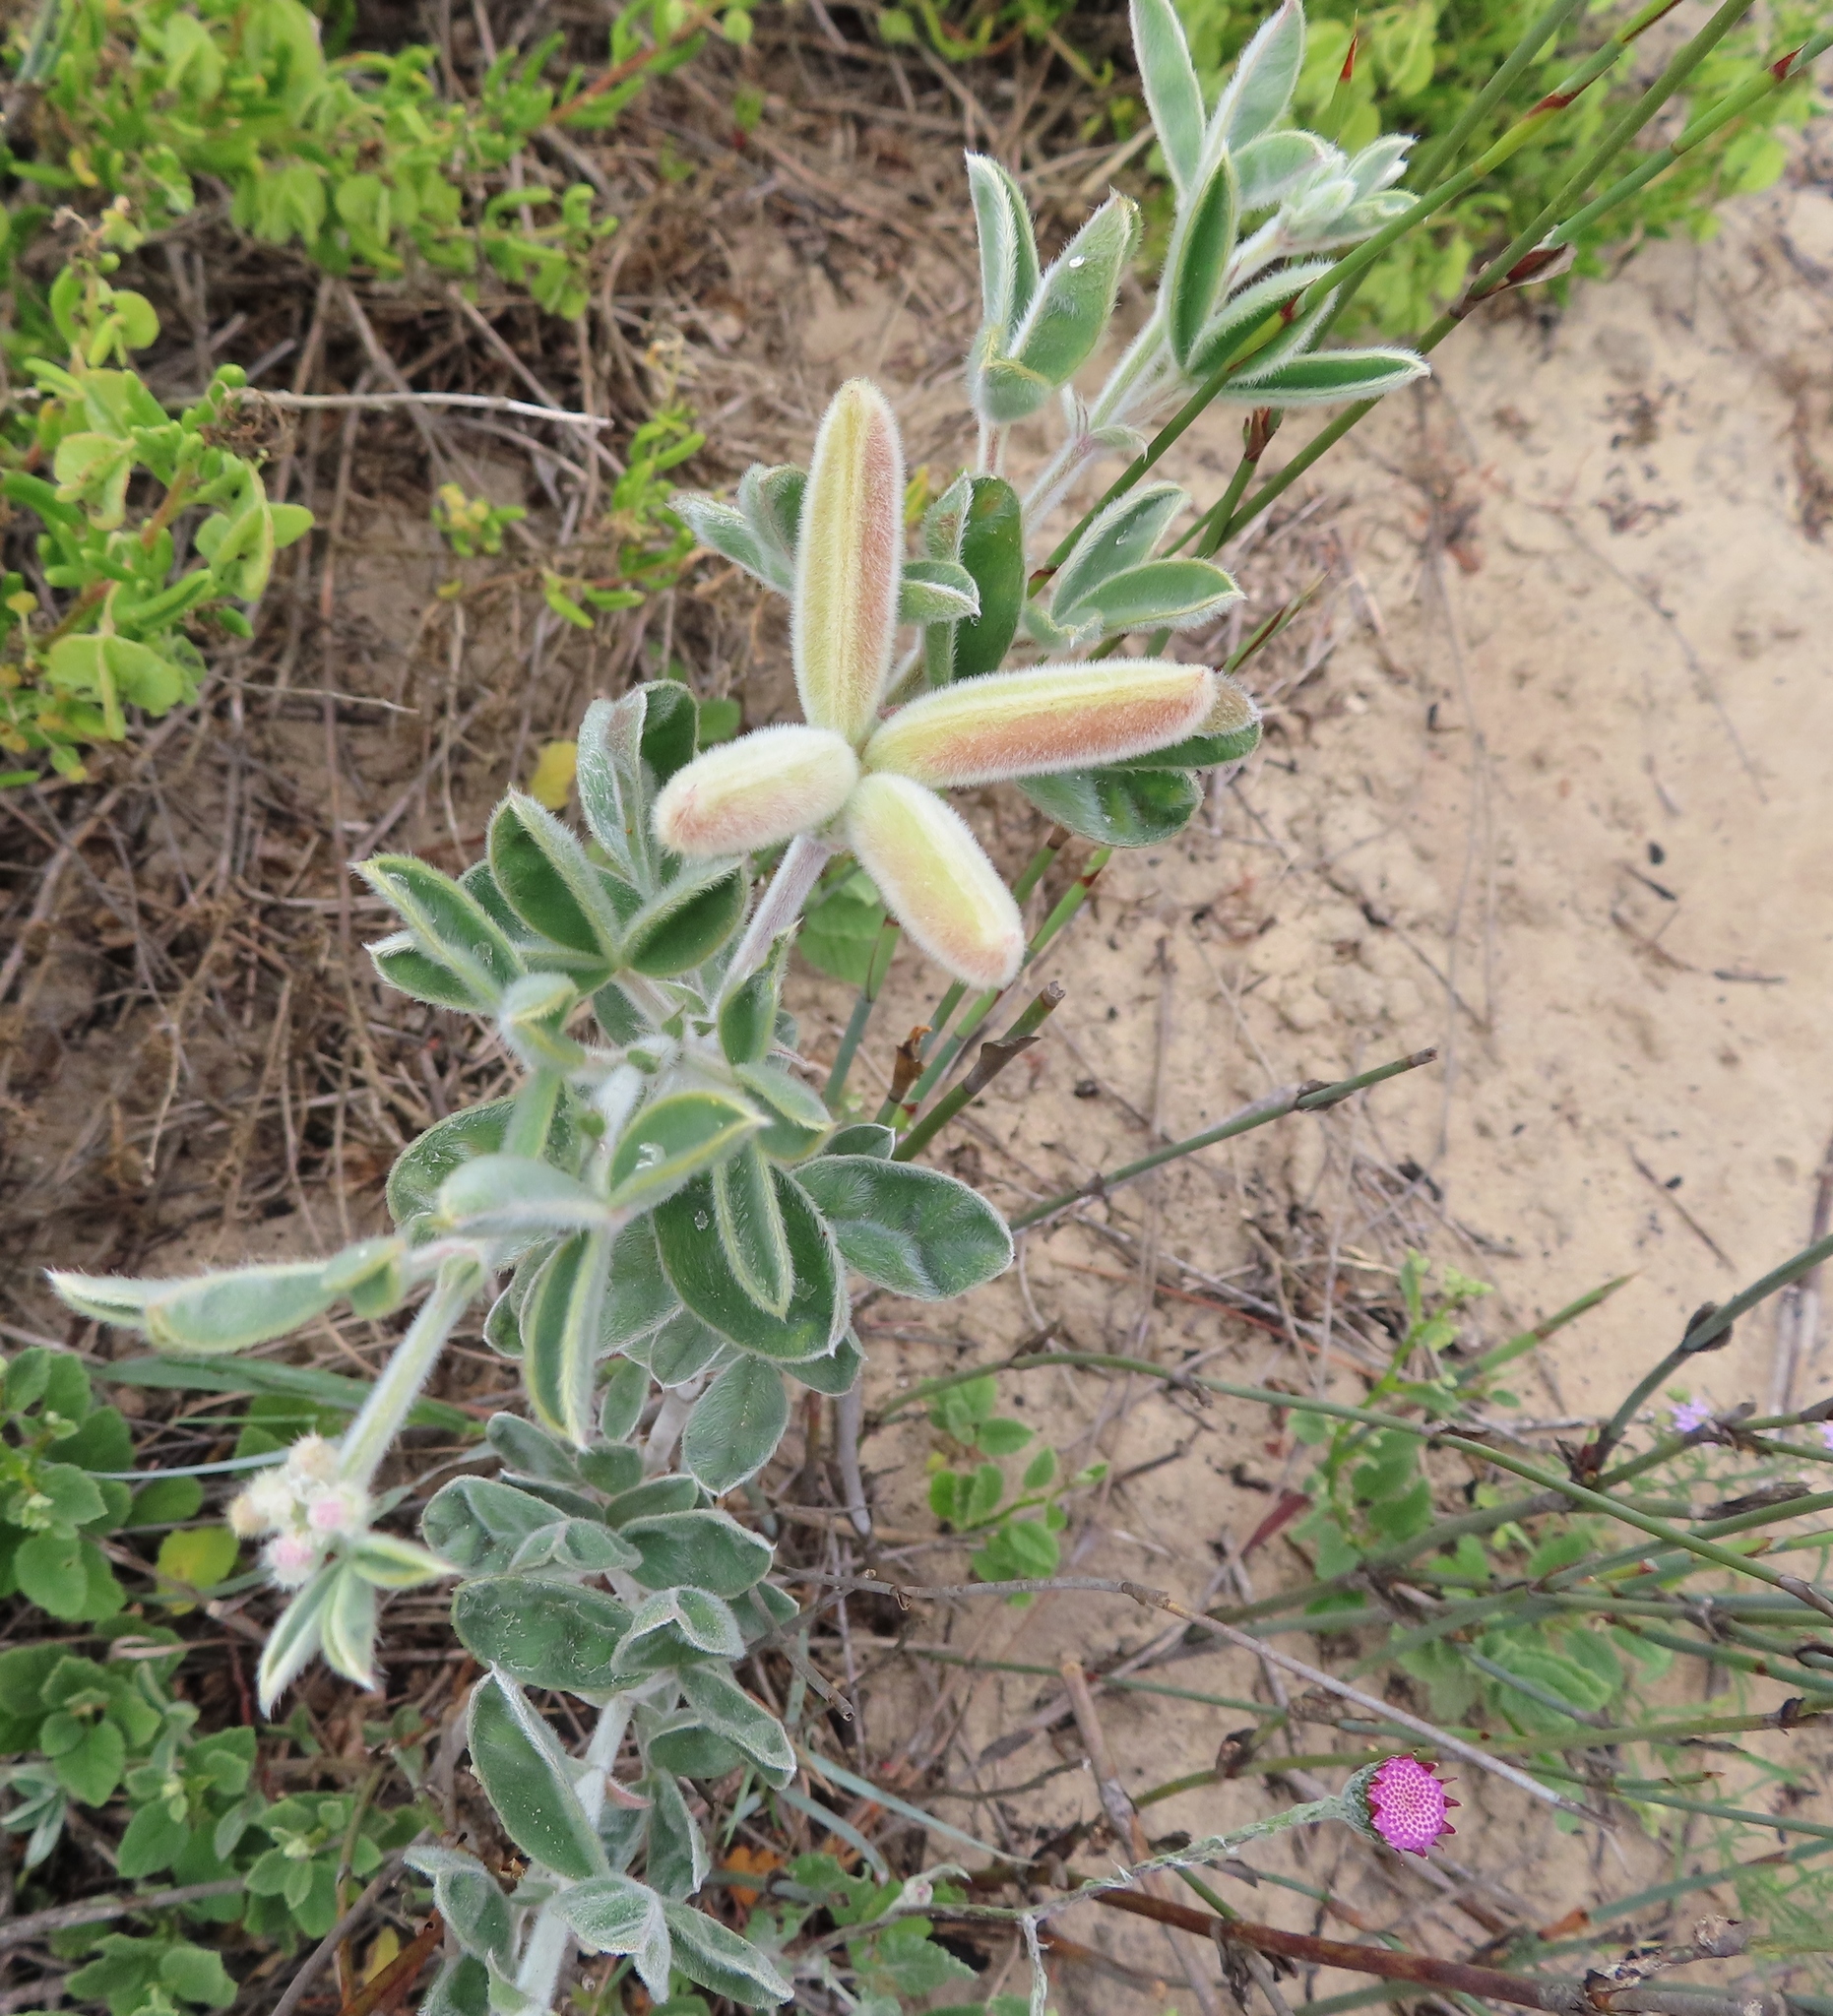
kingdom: Plantae
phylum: Tracheophyta
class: Magnoliopsida
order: Fabales
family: Fabaceae
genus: Argyrolobium
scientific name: Argyrolobium velutinum
